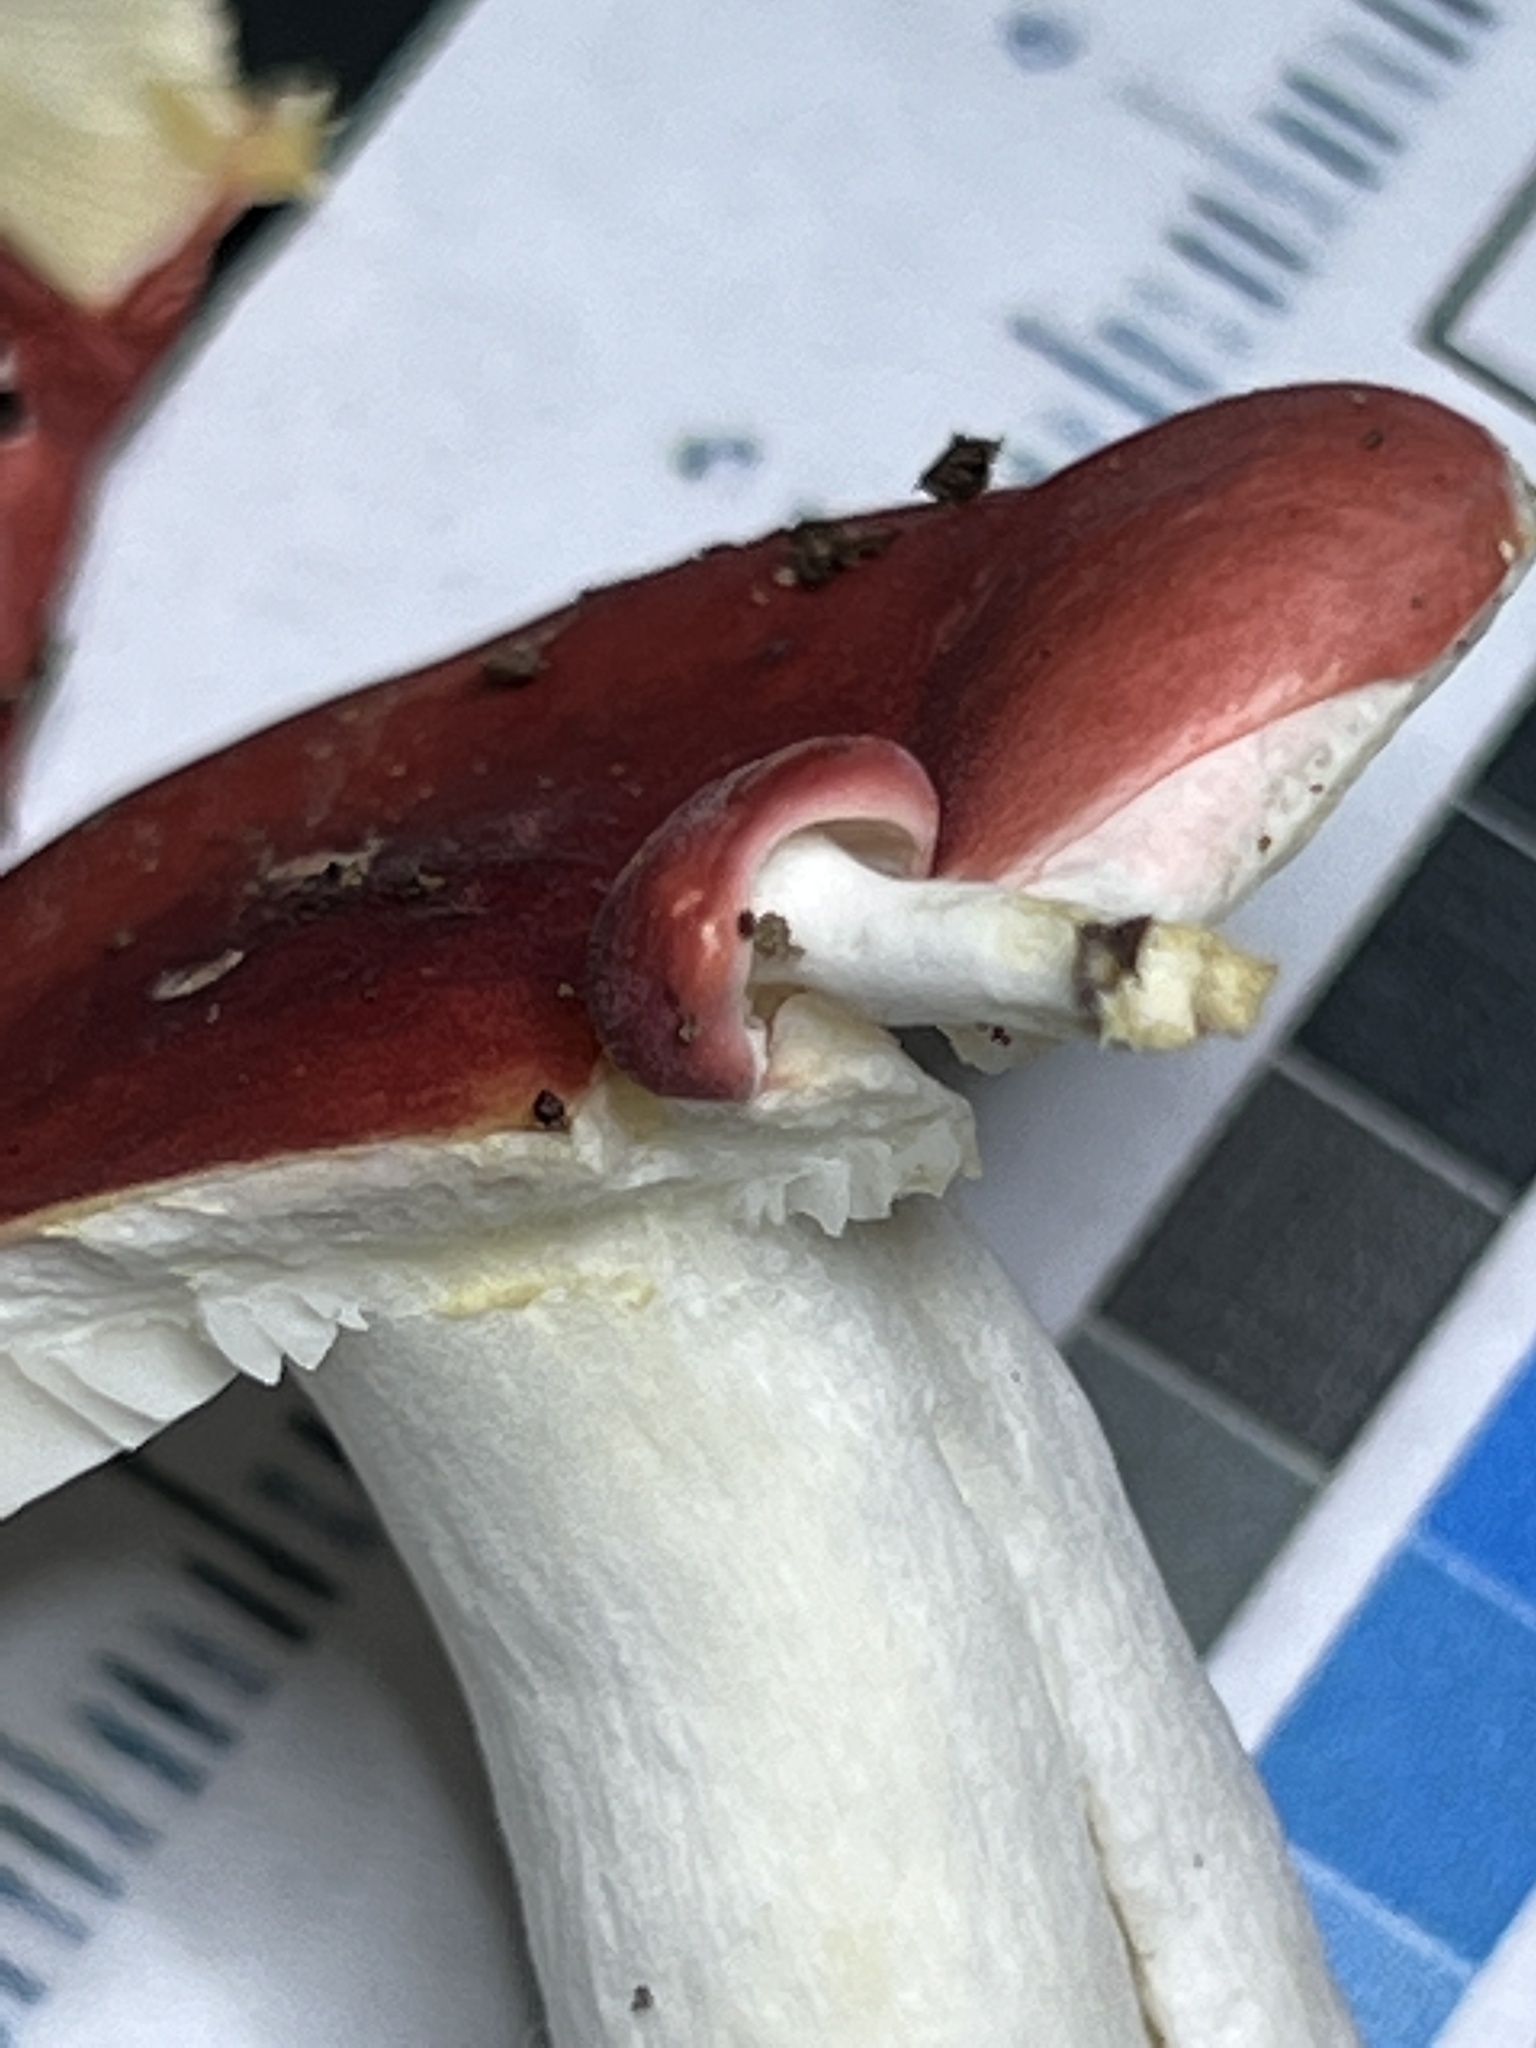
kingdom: Fungi
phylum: Basidiomycota
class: Agaricomycetes
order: Russulales
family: Russulaceae
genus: Russula
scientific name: Russula silvestris
